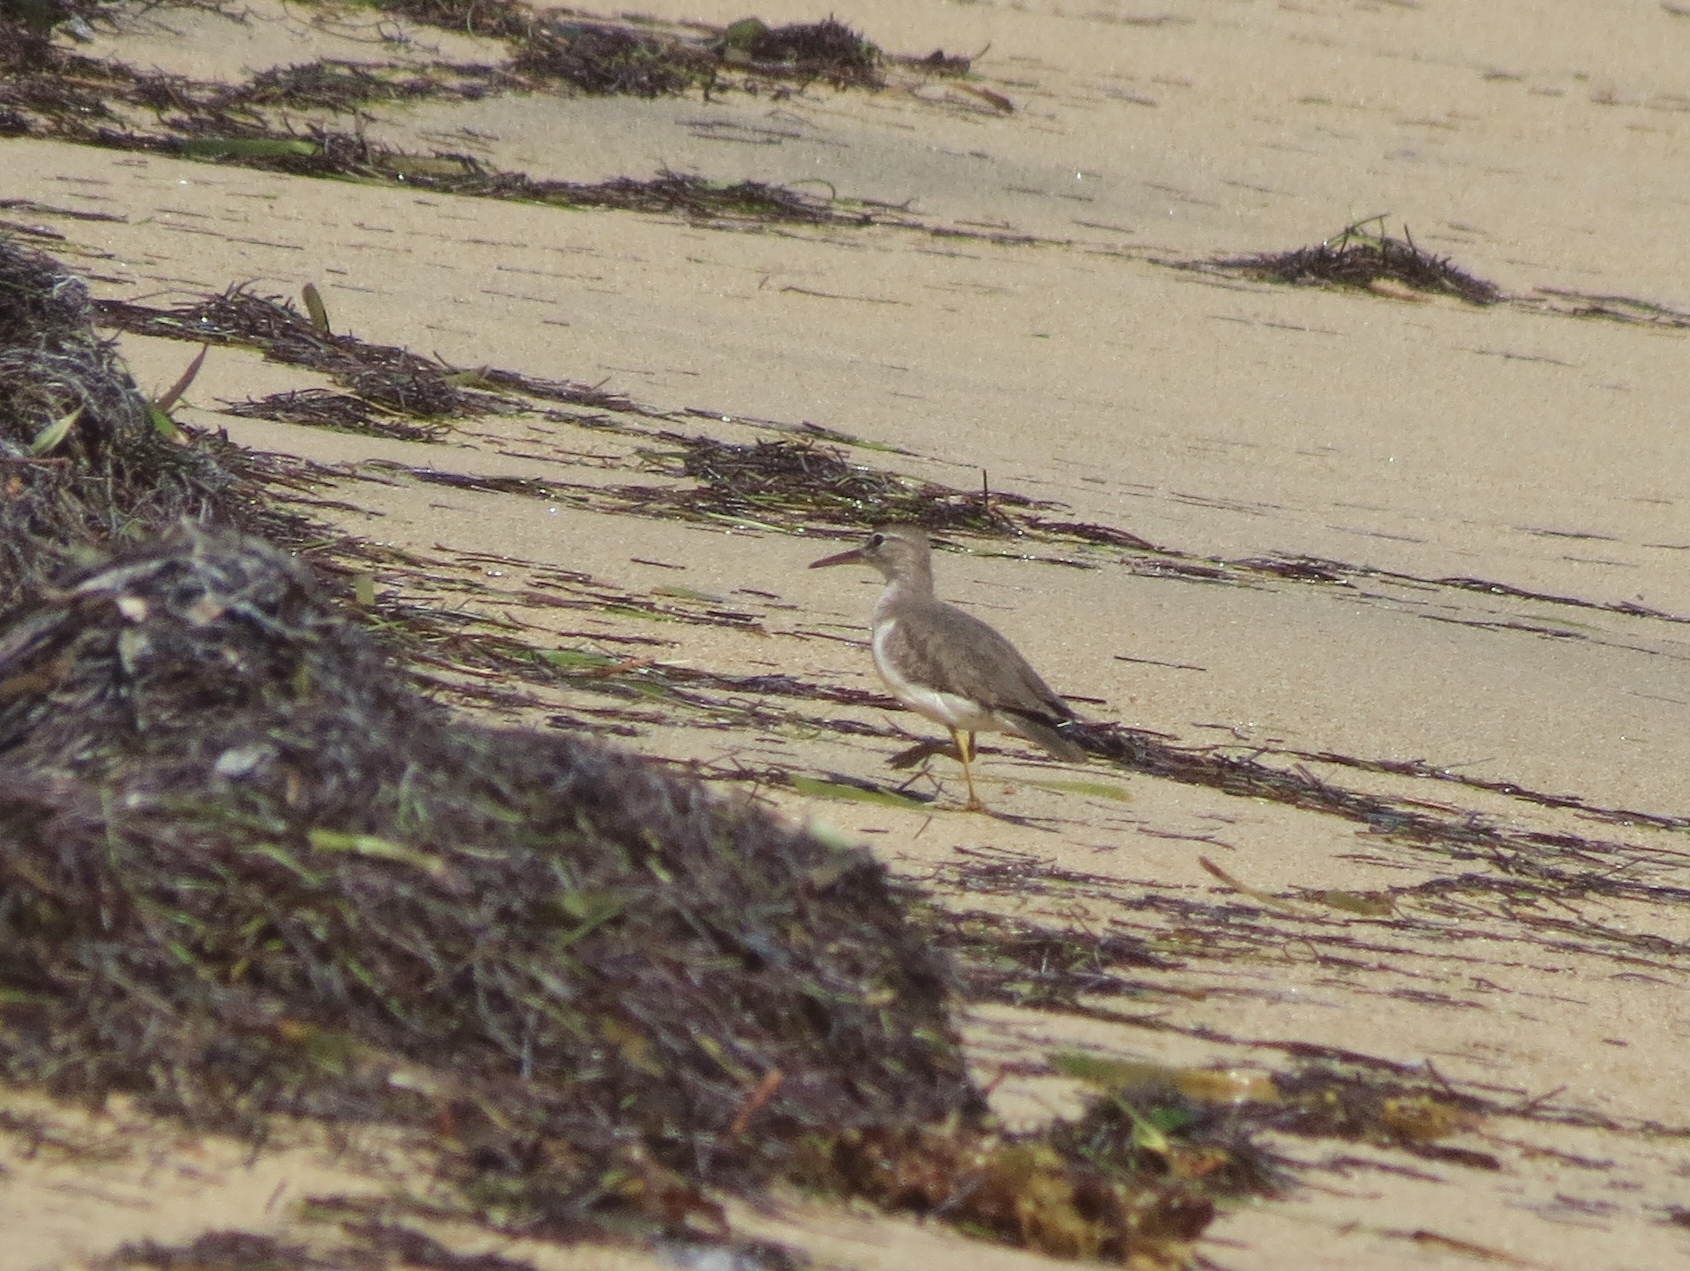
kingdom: Animalia
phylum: Chordata
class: Aves
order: Charadriiformes
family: Scolopacidae
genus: Actitis
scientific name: Actitis macularius
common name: Spotted sandpiper
